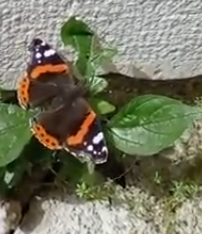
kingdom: Animalia
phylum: Arthropoda
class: Insecta
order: Lepidoptera
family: Nymphalidae
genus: Vanessa
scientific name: Vanessa atalanta
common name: Red admiral
